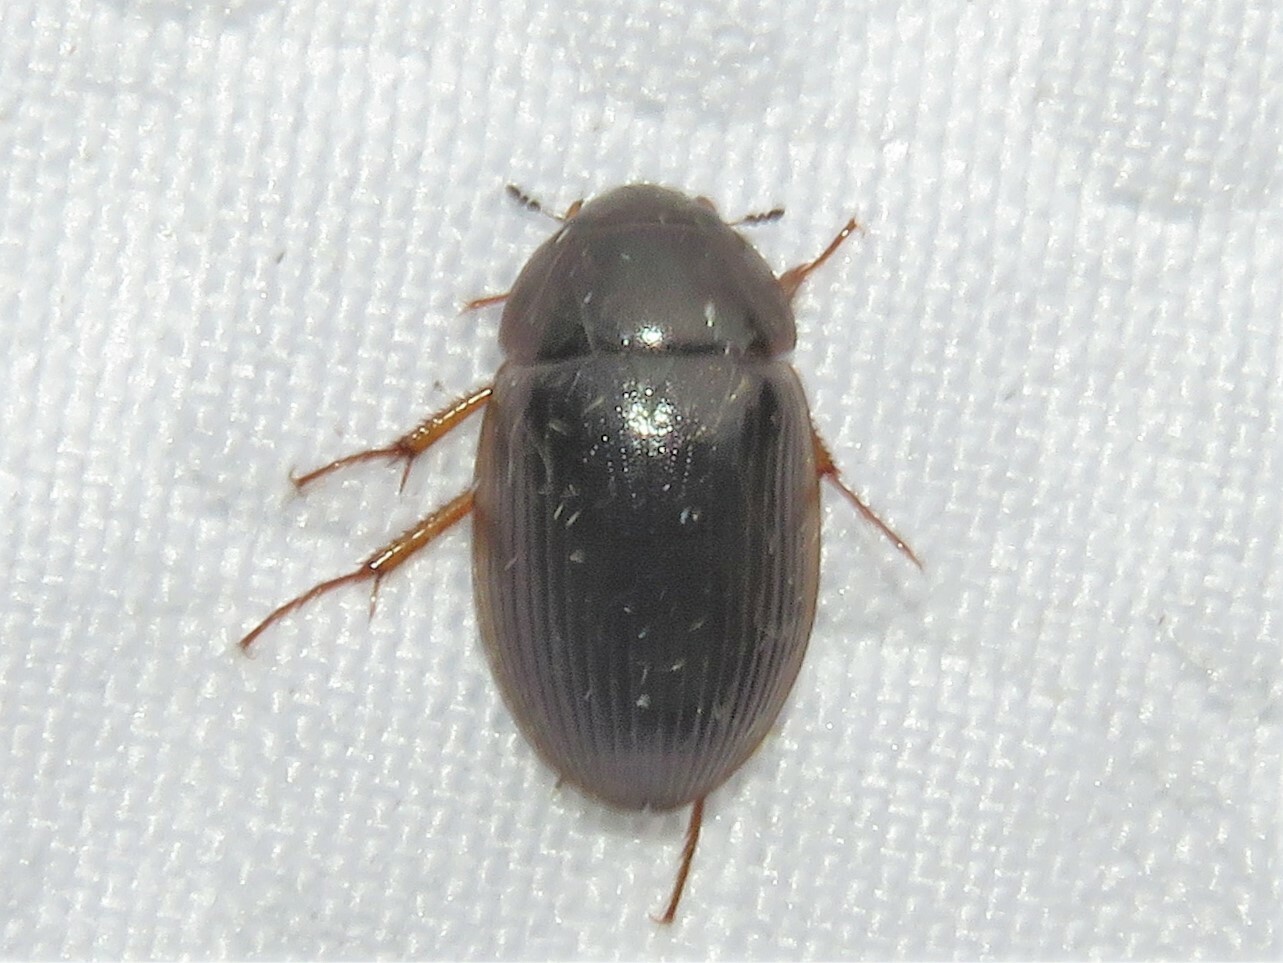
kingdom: Animalia
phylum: Arthropoda
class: Insecta
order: Coleoptera
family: Hydrophilidae
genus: Hydrobius
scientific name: Hydrobius fuscipes
